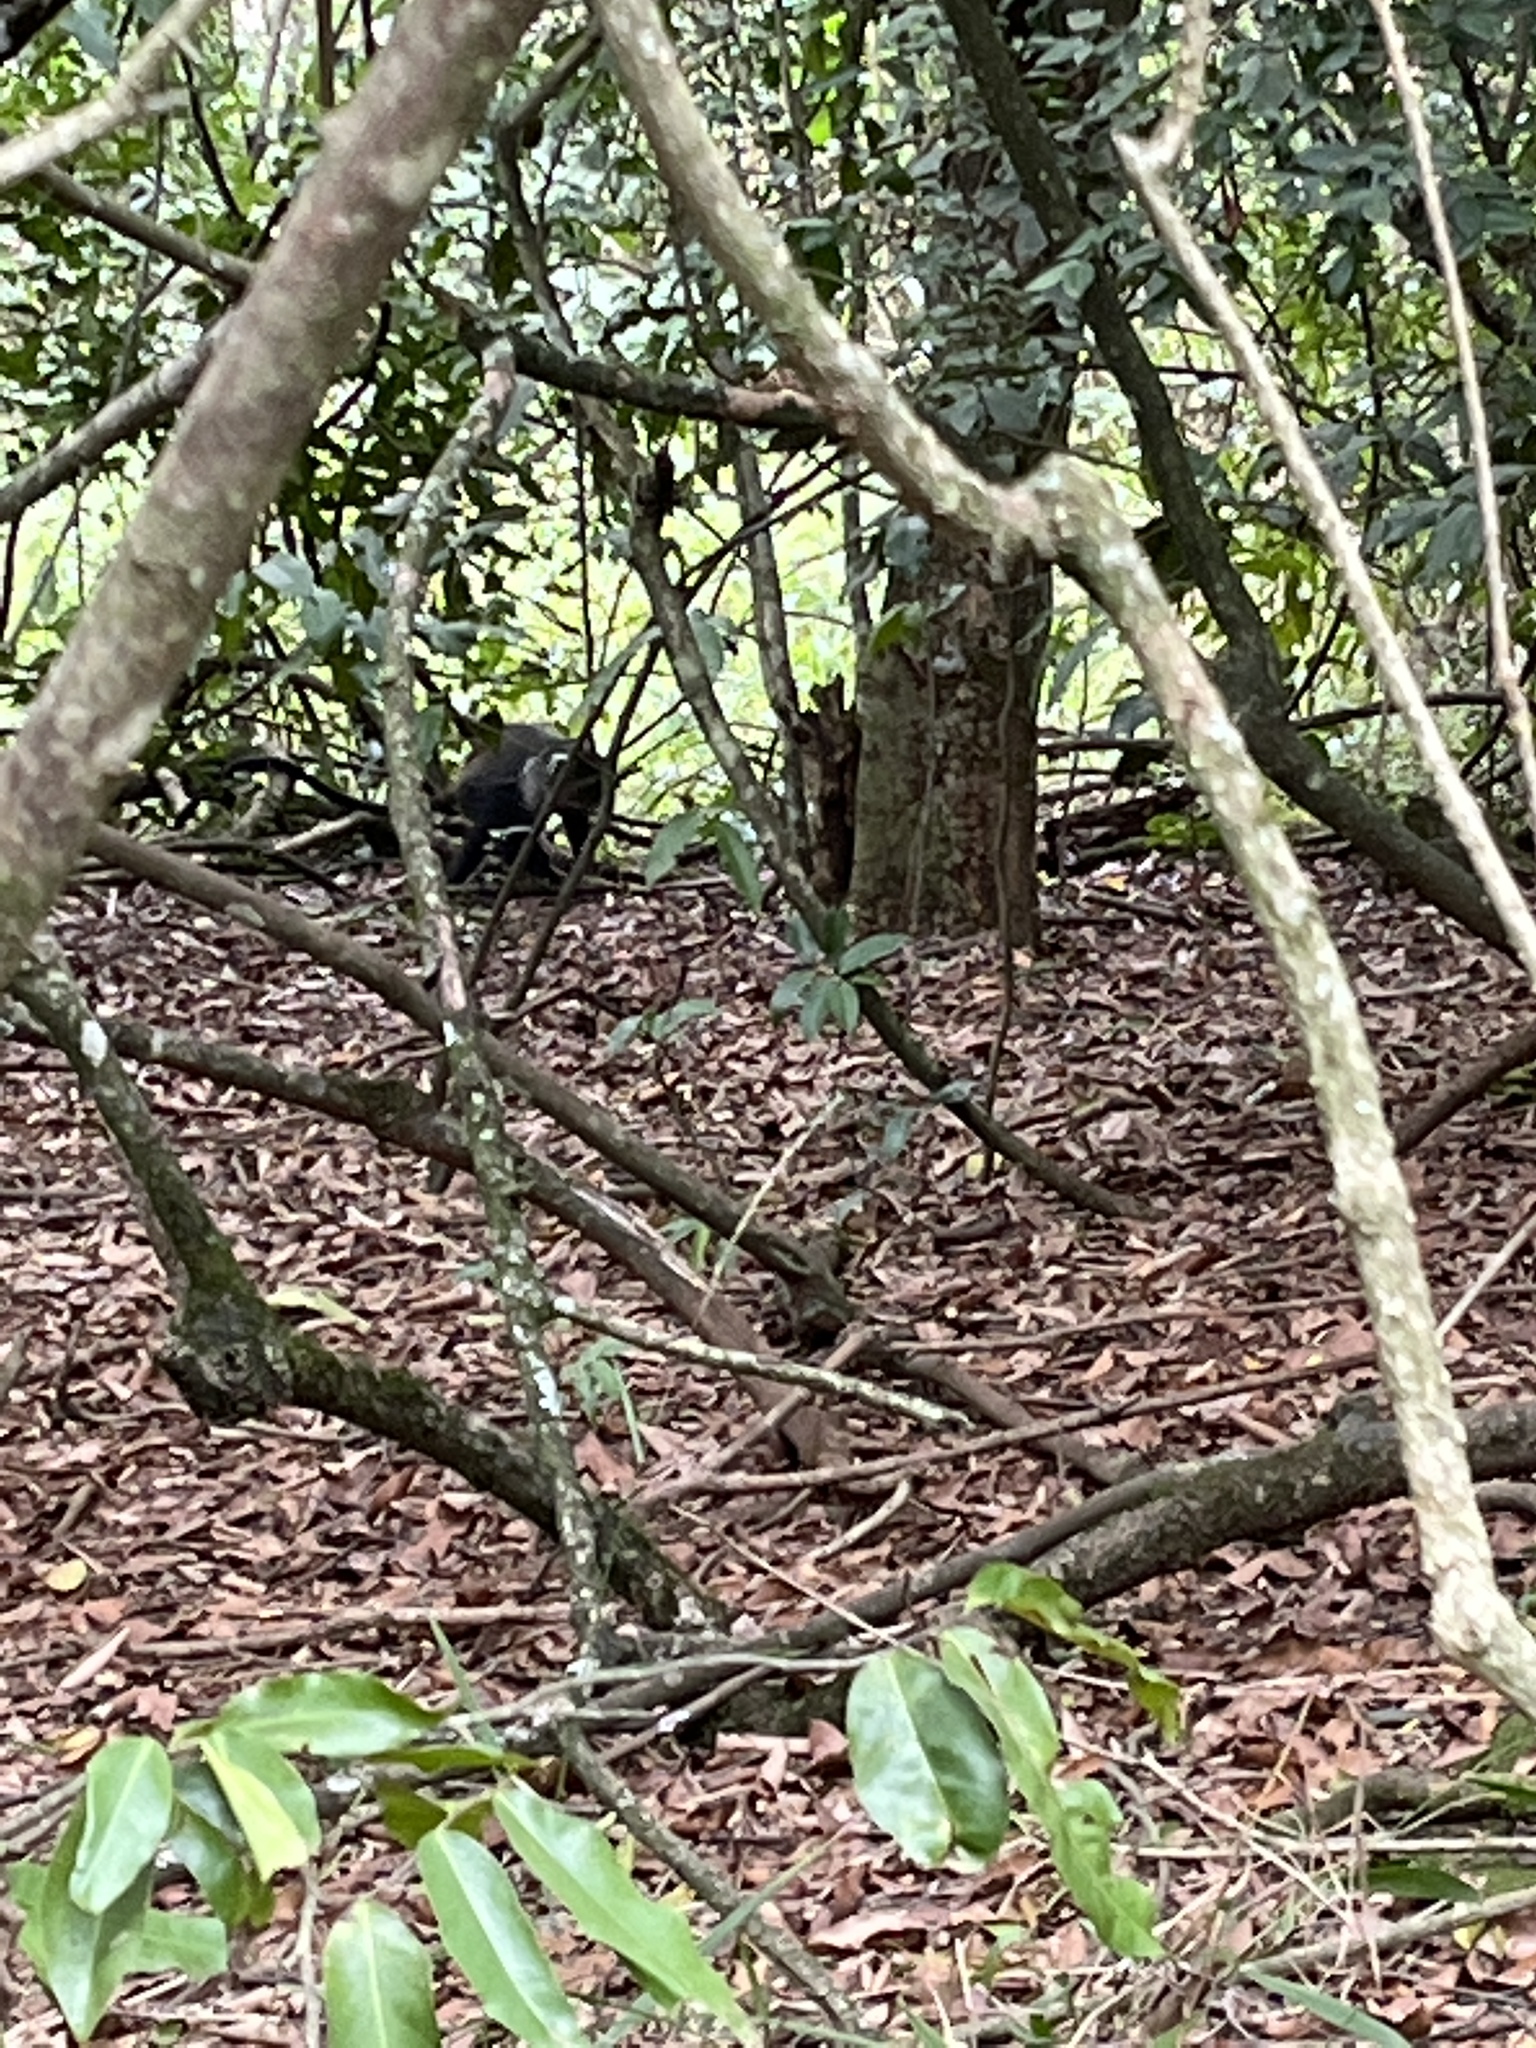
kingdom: Animalia
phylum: Chordata
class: Mammalia
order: Primates
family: Cercopithecidae
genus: Cercopithecus
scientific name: Cercopithecus mitis
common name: Blue monkey
